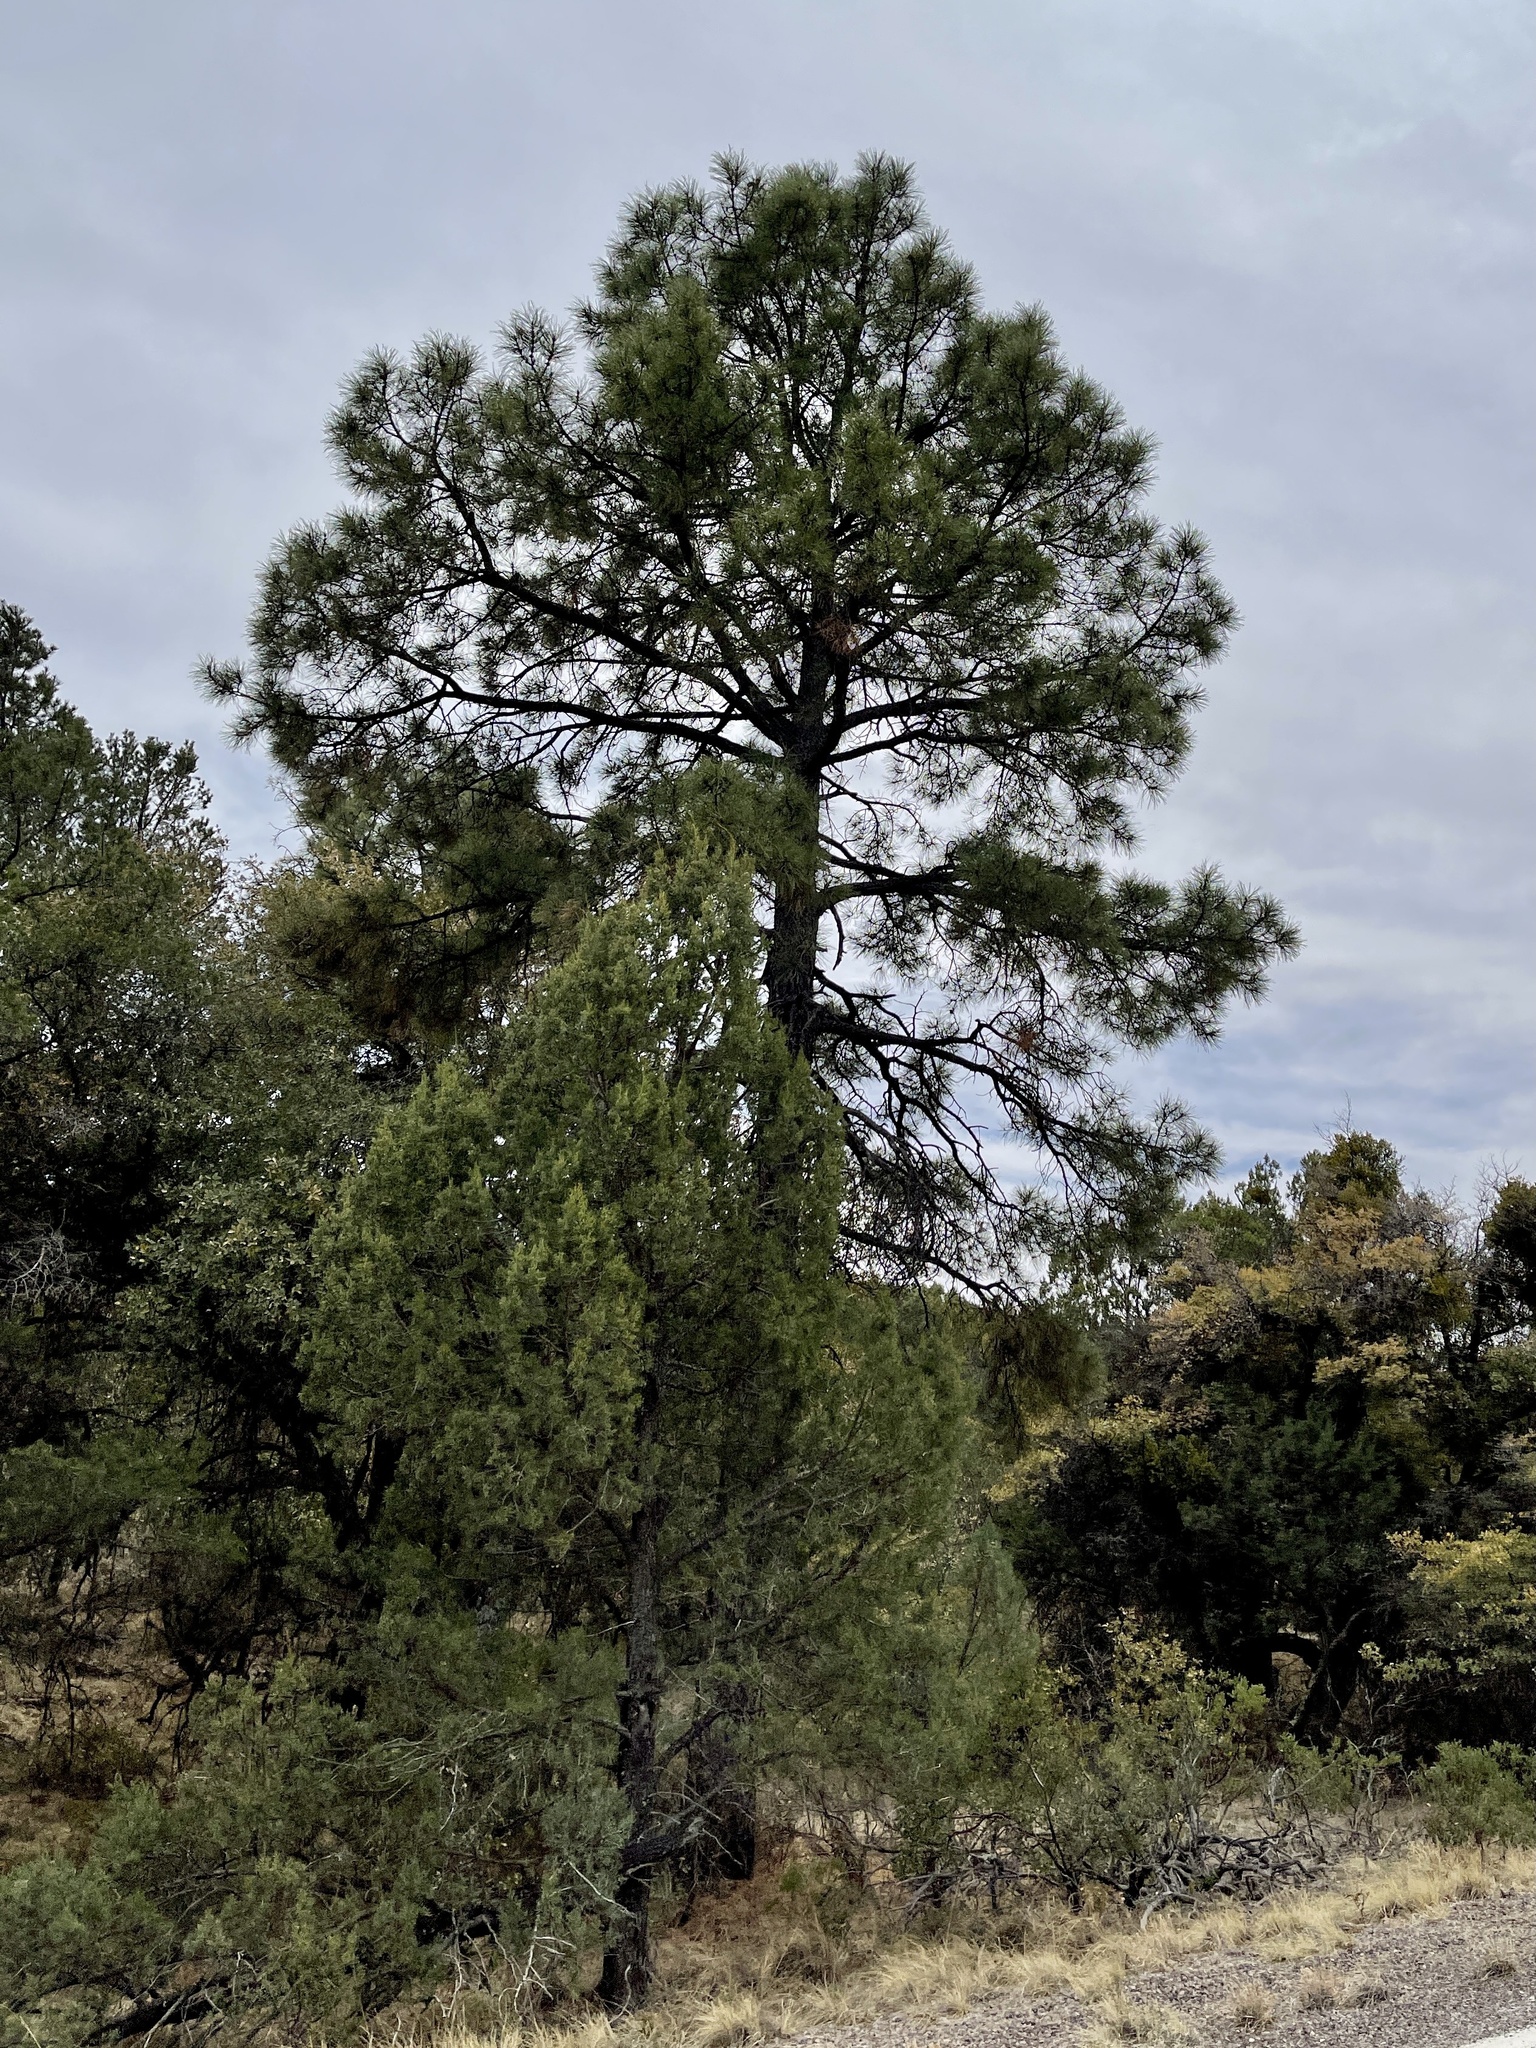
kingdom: Plantae
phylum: Tracheophyta
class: Pinopsida
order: Pinales
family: Pinaceae
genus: Pinus
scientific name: Pinus ponderosa
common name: Western yellow-pine
